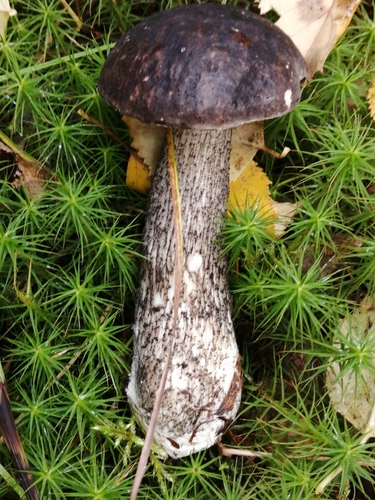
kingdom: Fungi
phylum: Basidiomycota
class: Agaricomycetes
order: Boletales
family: Boletaceae
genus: Leccinum
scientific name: Leccinum
